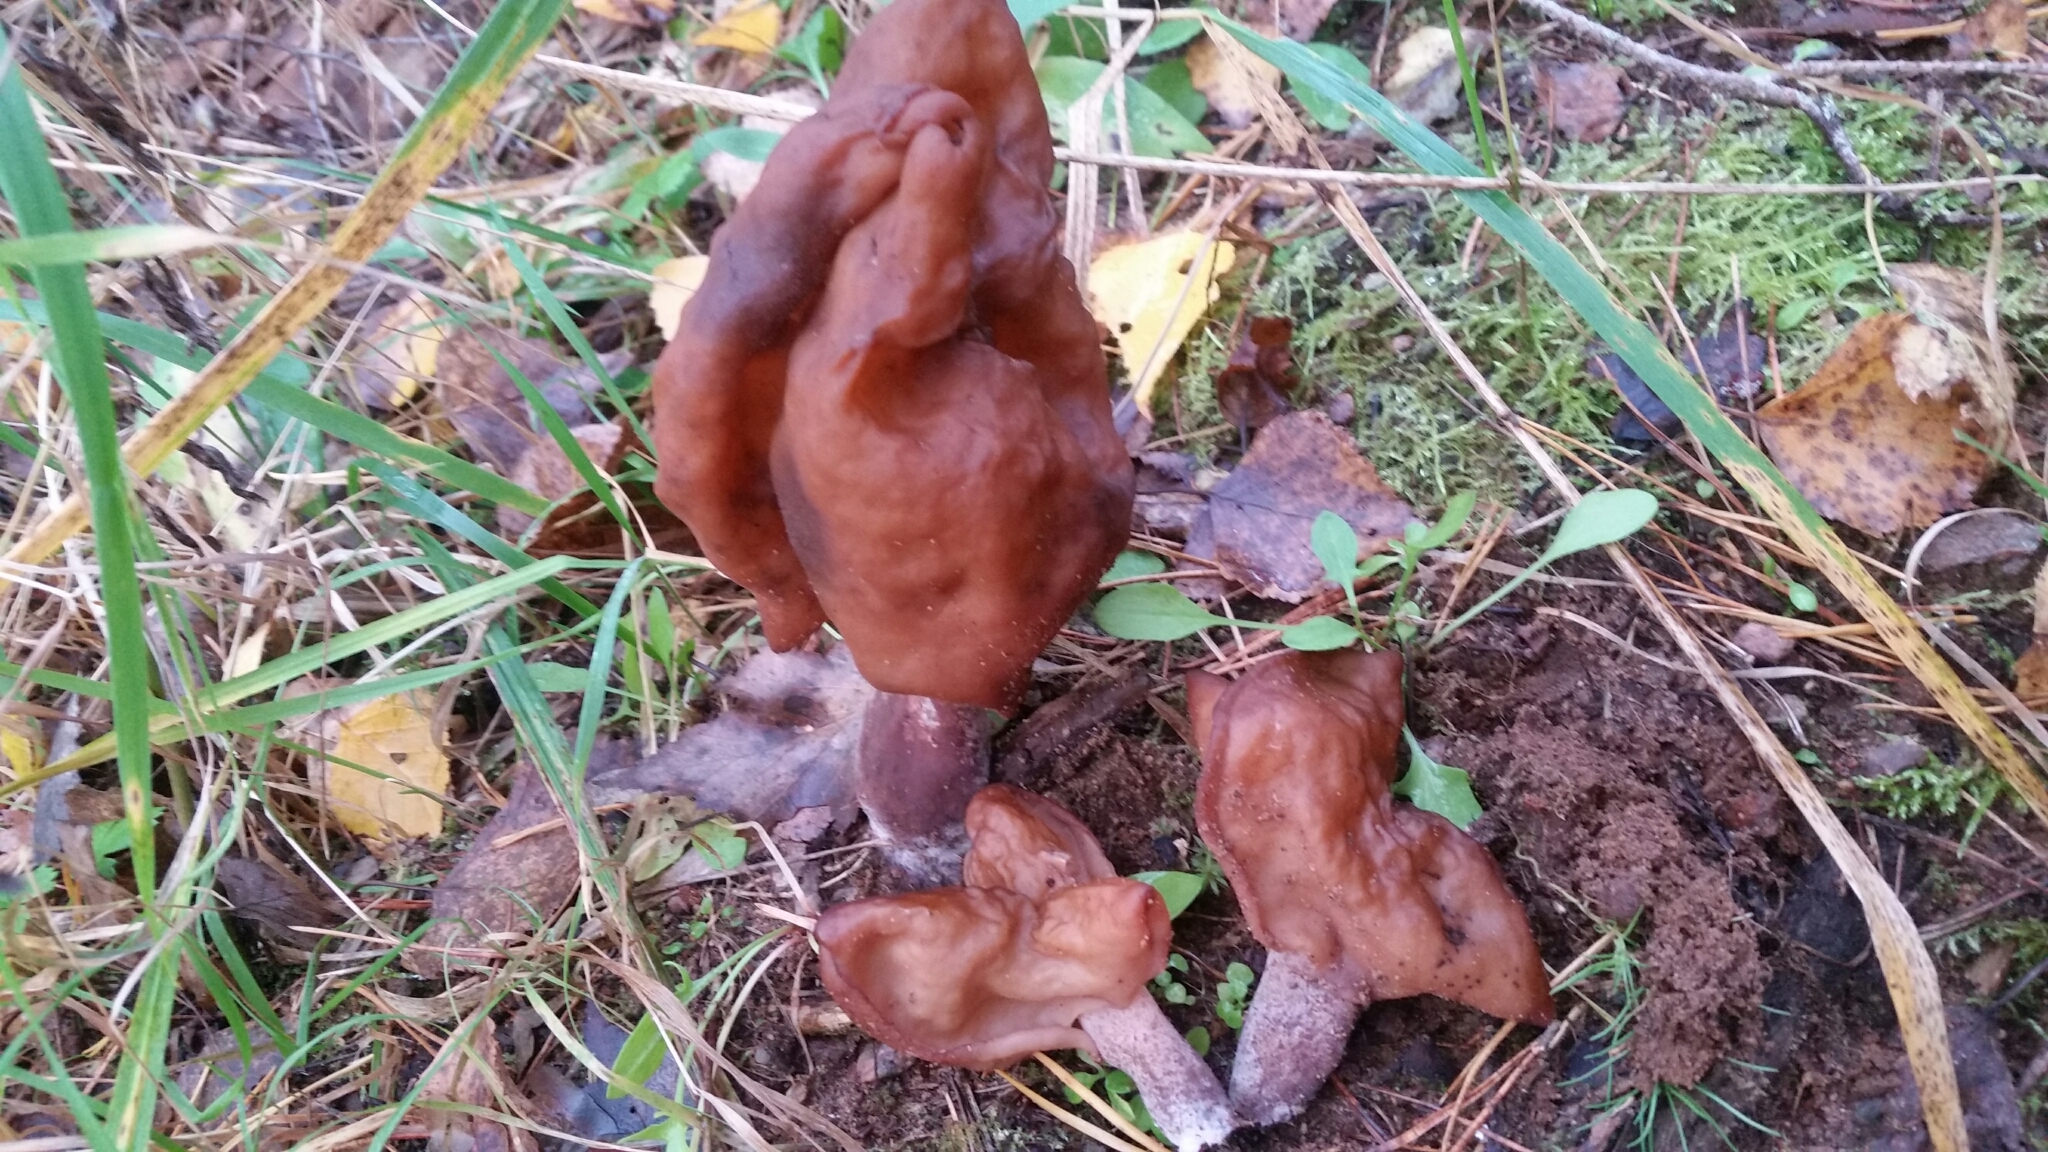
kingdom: Fungi
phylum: Ascomycota
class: Pezizomycetes
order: Pezizales
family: Discinaceae
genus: Gyromitra
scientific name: Gyromitra infula
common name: Pouched false morel
